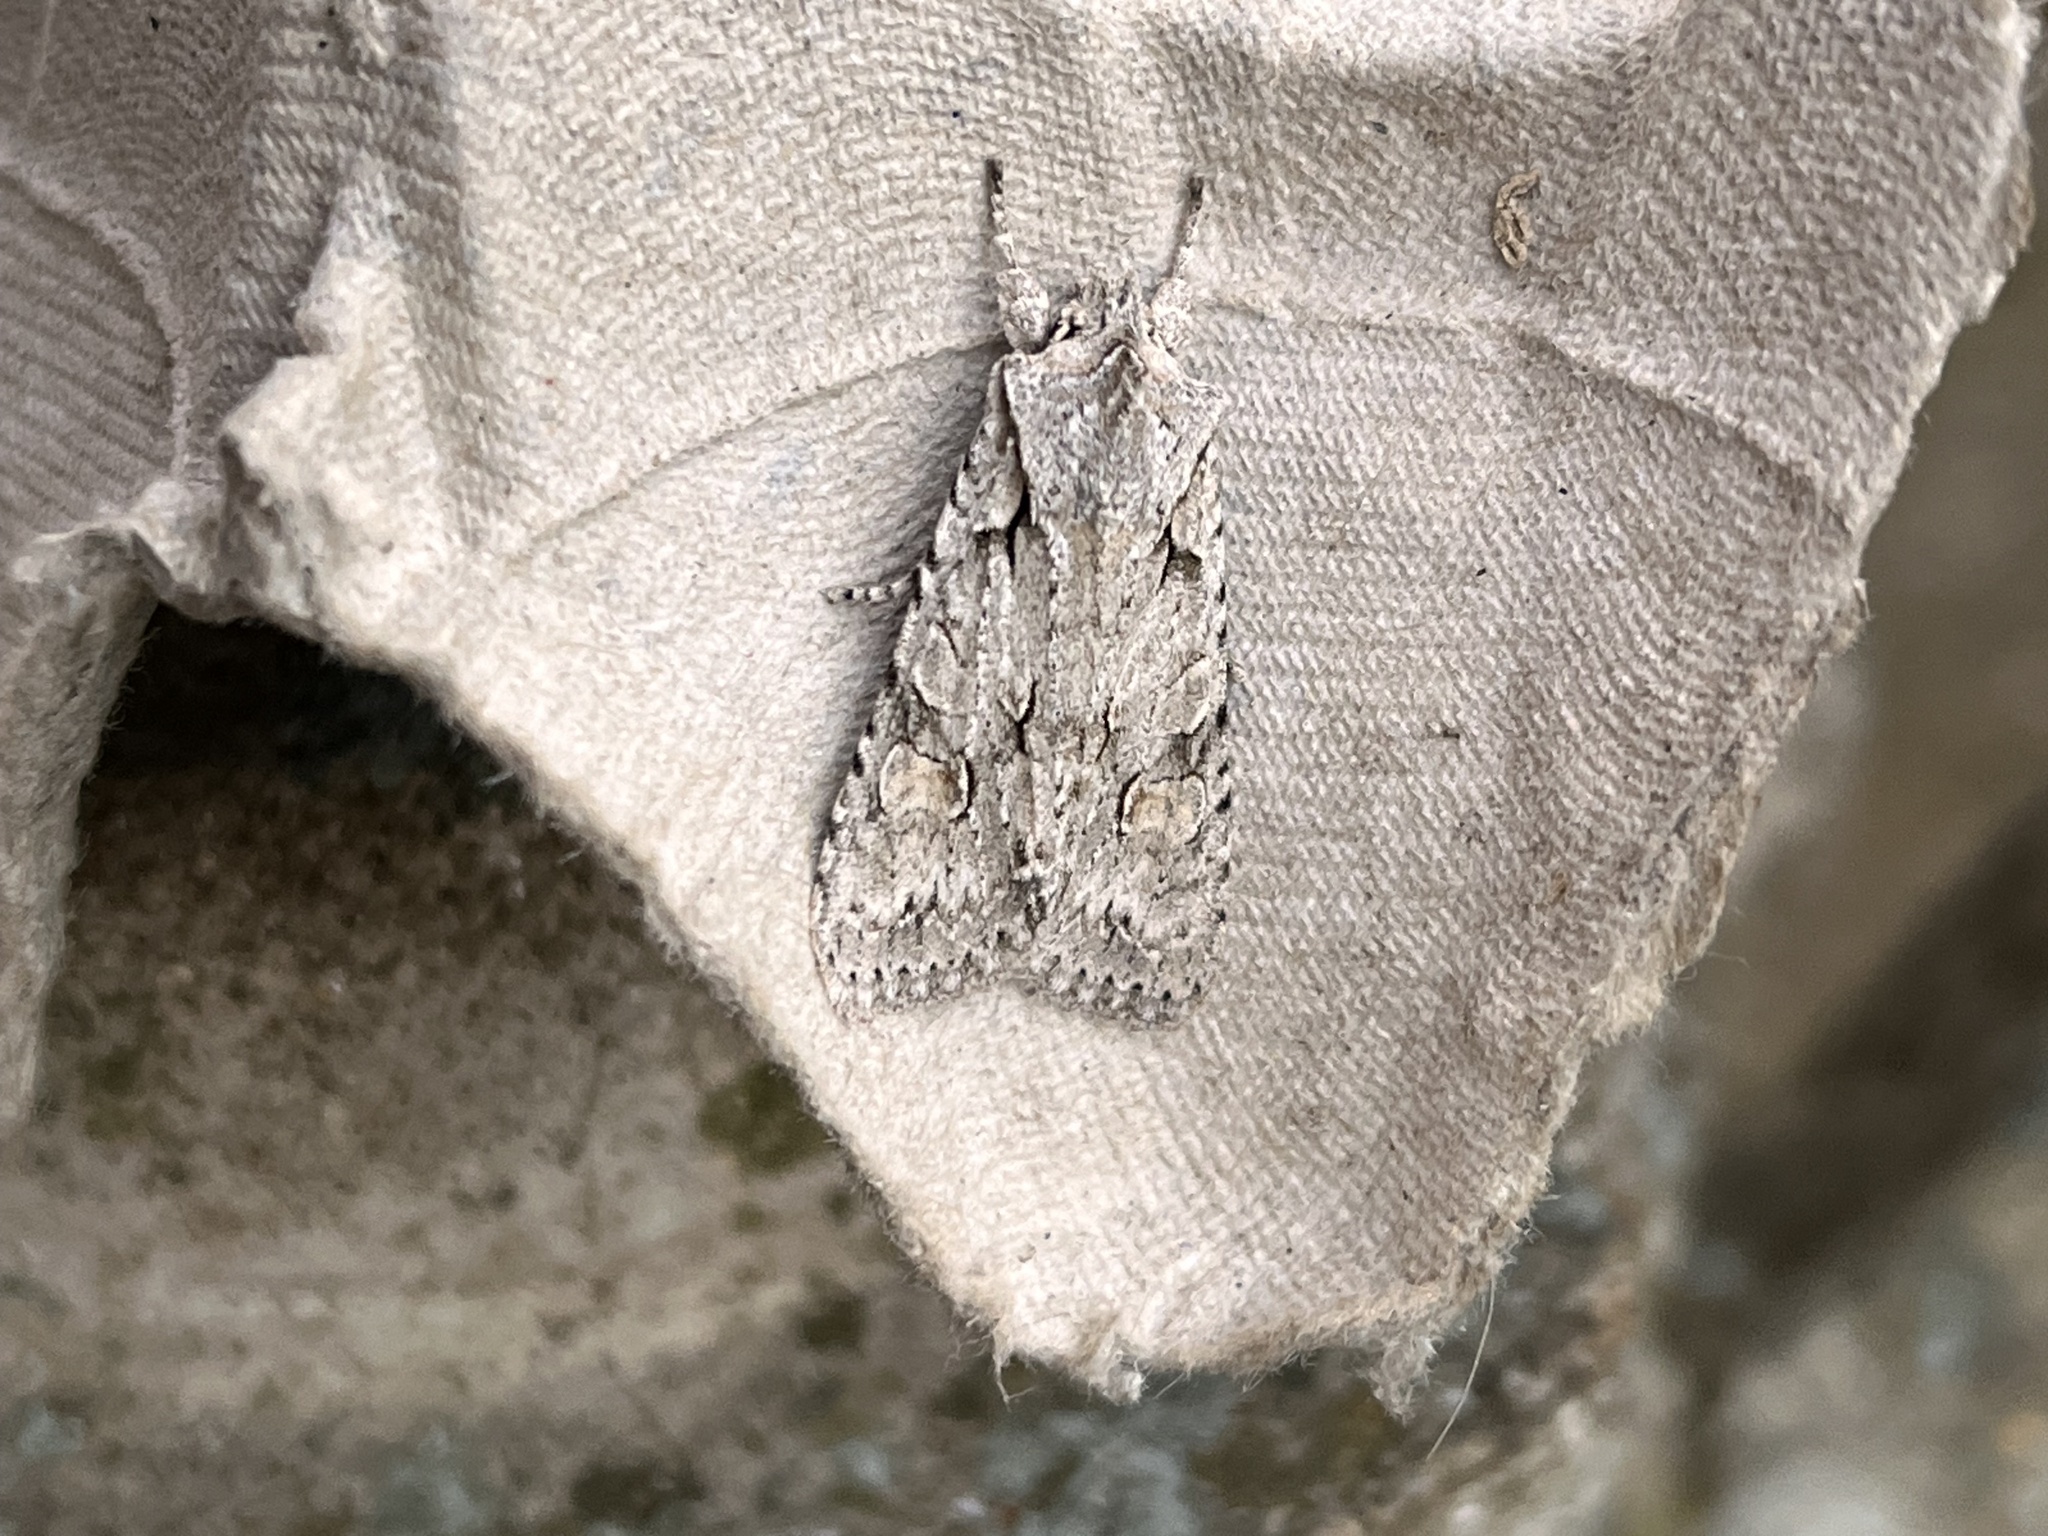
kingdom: Animalia
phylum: Arthropoda
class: Insecta
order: Lepidoptera
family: Noctuidae
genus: Lithophane
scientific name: Lithophane ornitopus
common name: Grey shoulder-knot
